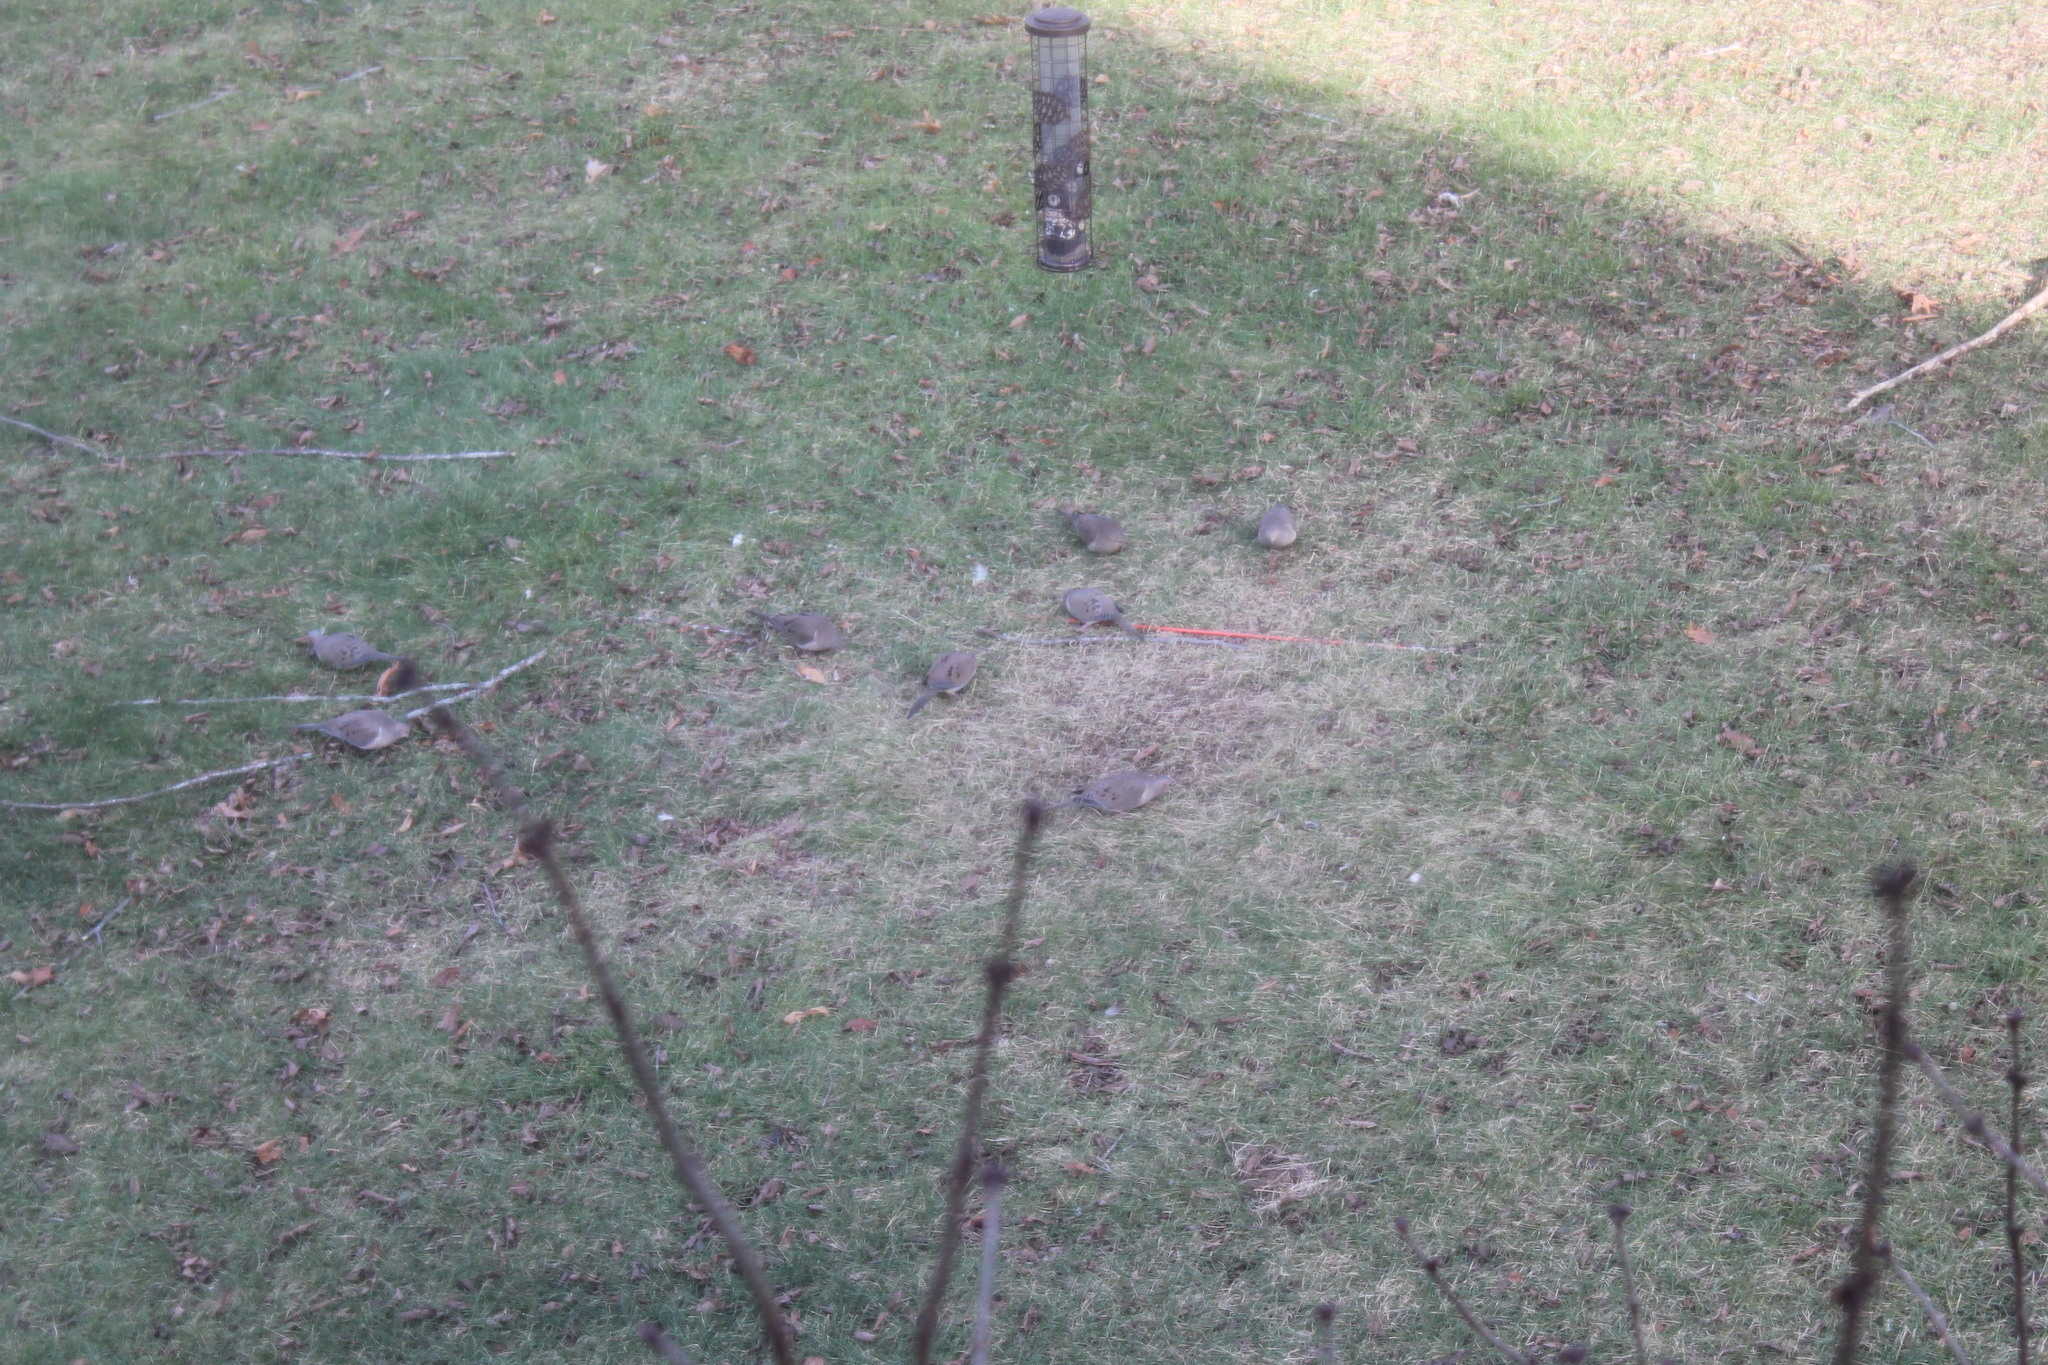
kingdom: Animalia
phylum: Chordata
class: Aves
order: Columbiformes
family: Columbidae
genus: Zenaida
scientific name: Zenaida macroura
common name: Mourning dove
